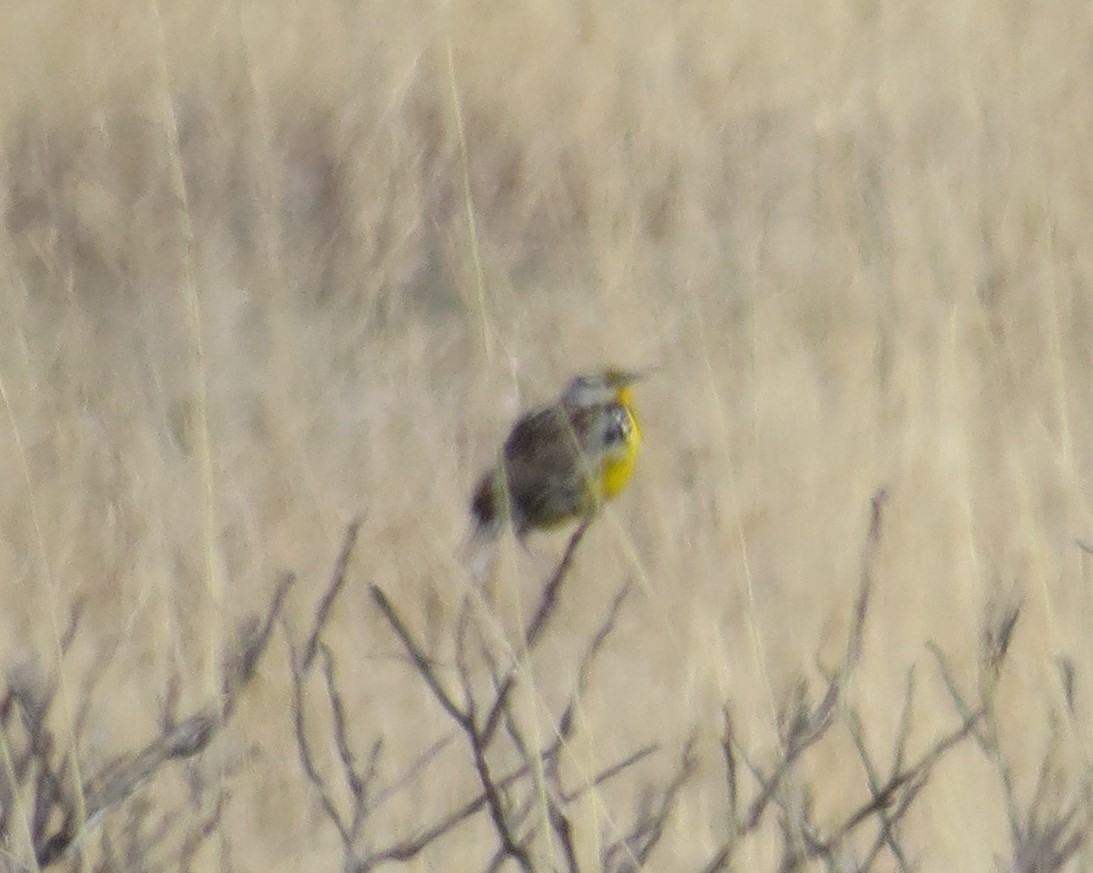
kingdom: Animalia
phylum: Chordata
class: Aves
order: Passeriformes
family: Icteridae
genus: Sturnella
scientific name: Sturnella magna
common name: Eastern meadowlark
